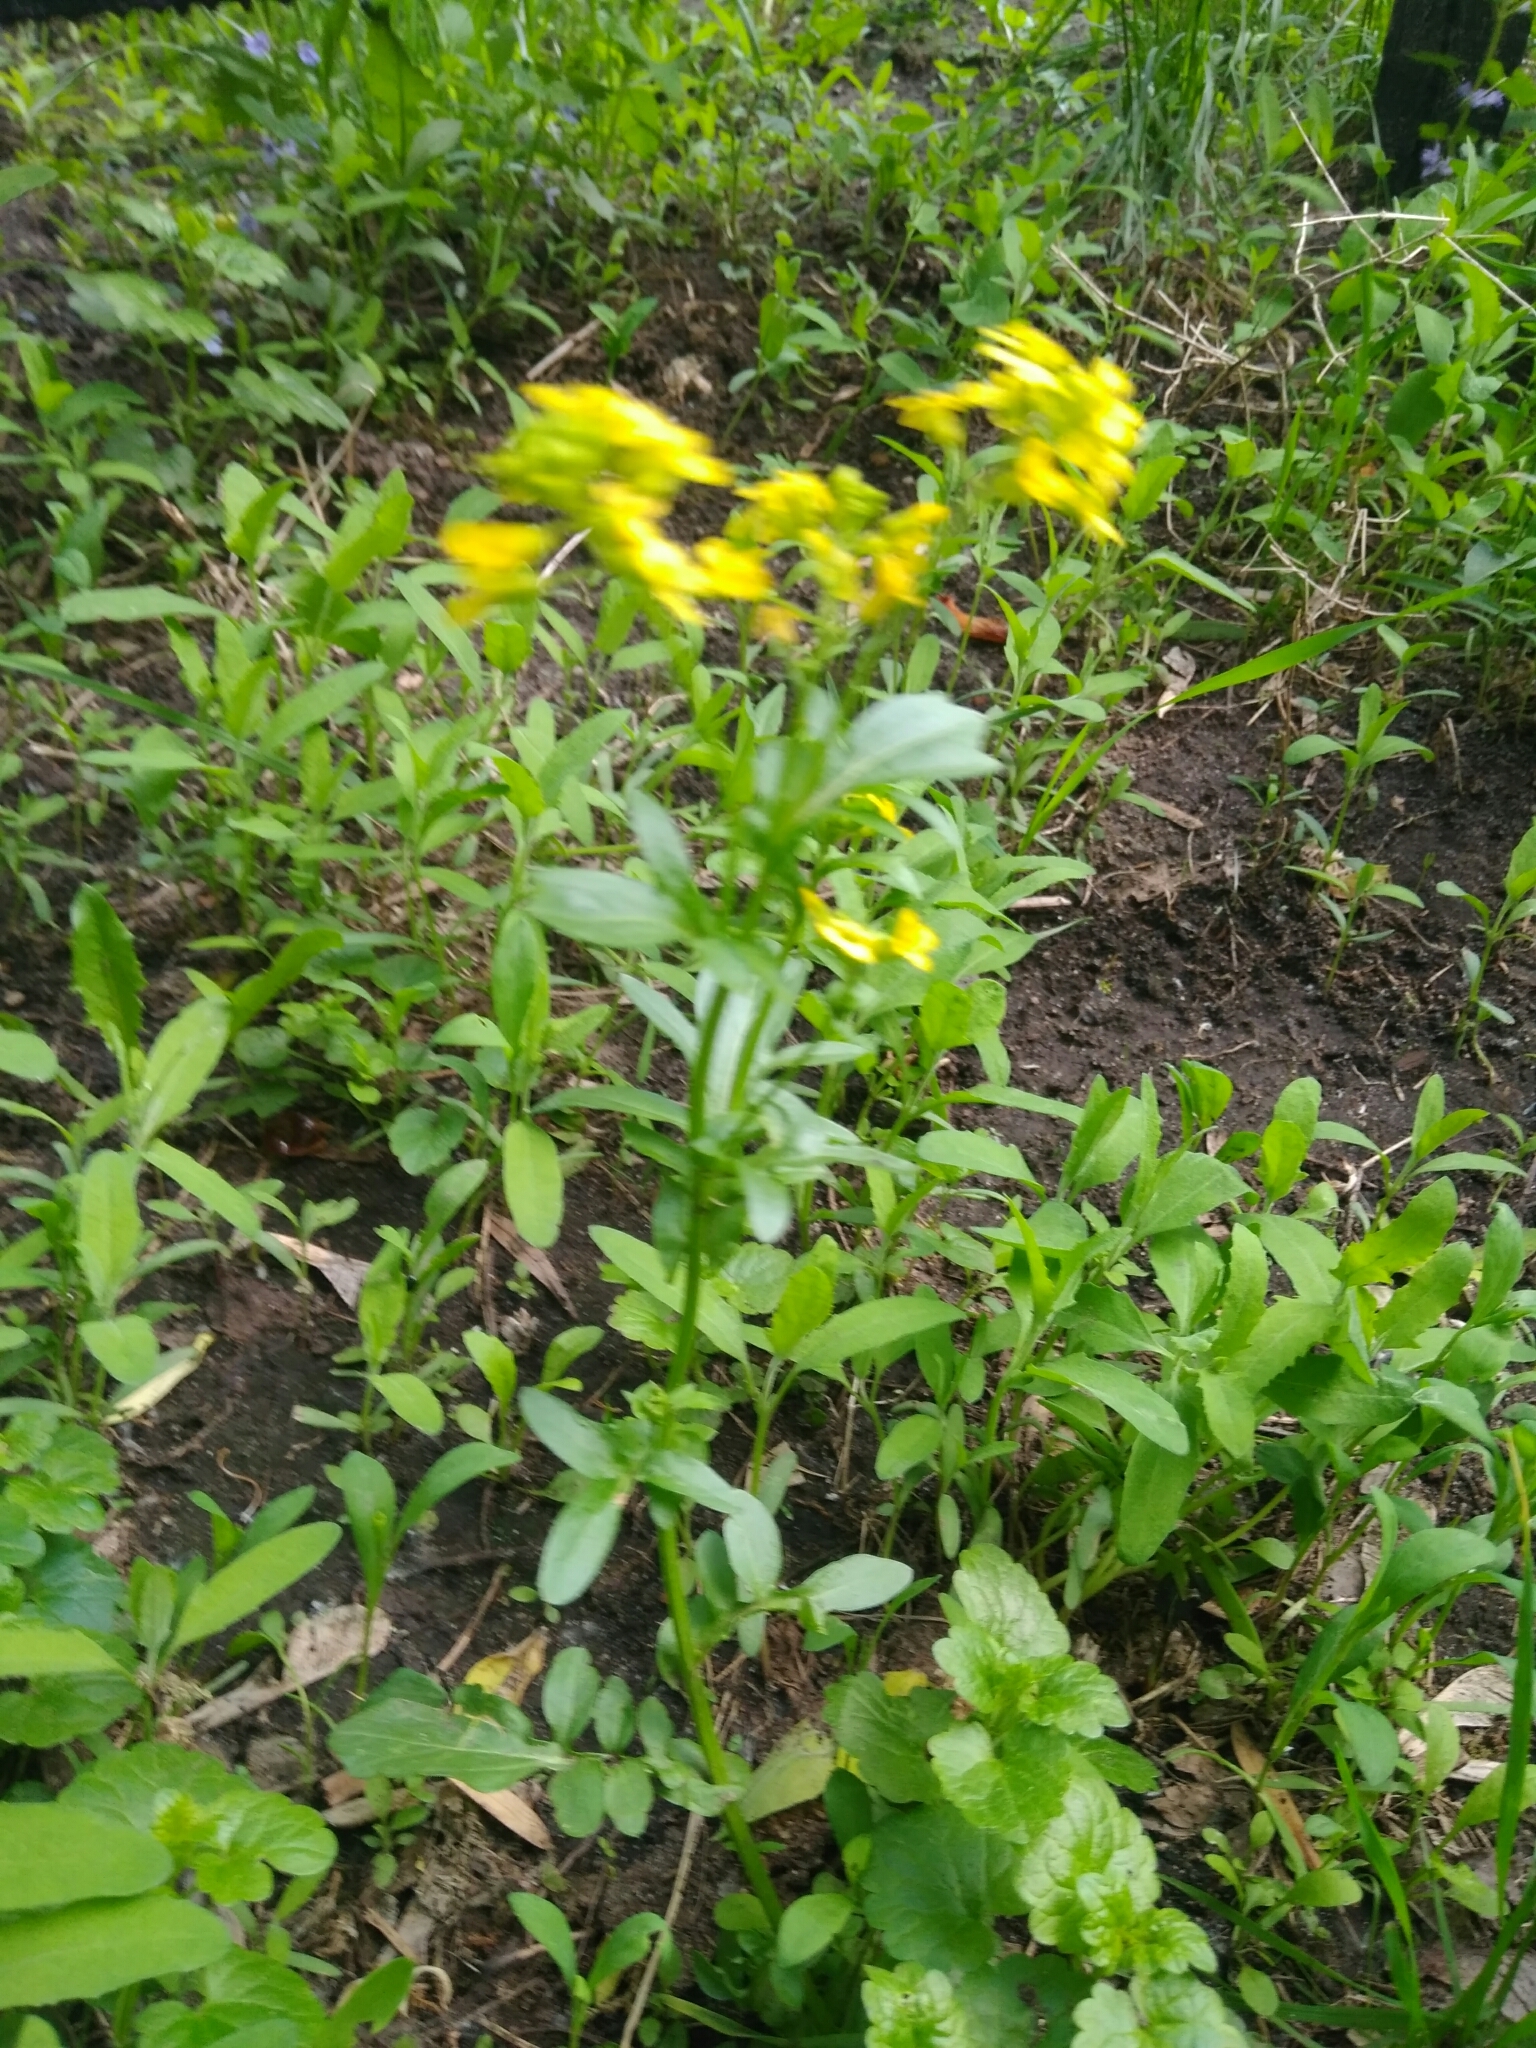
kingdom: Plantae
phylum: Tracheophyta
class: Magnoliopsida
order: Brassicales
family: Brassicaceae
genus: Barbarea
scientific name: Barbarea vulgaris
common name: Cressy-greens
